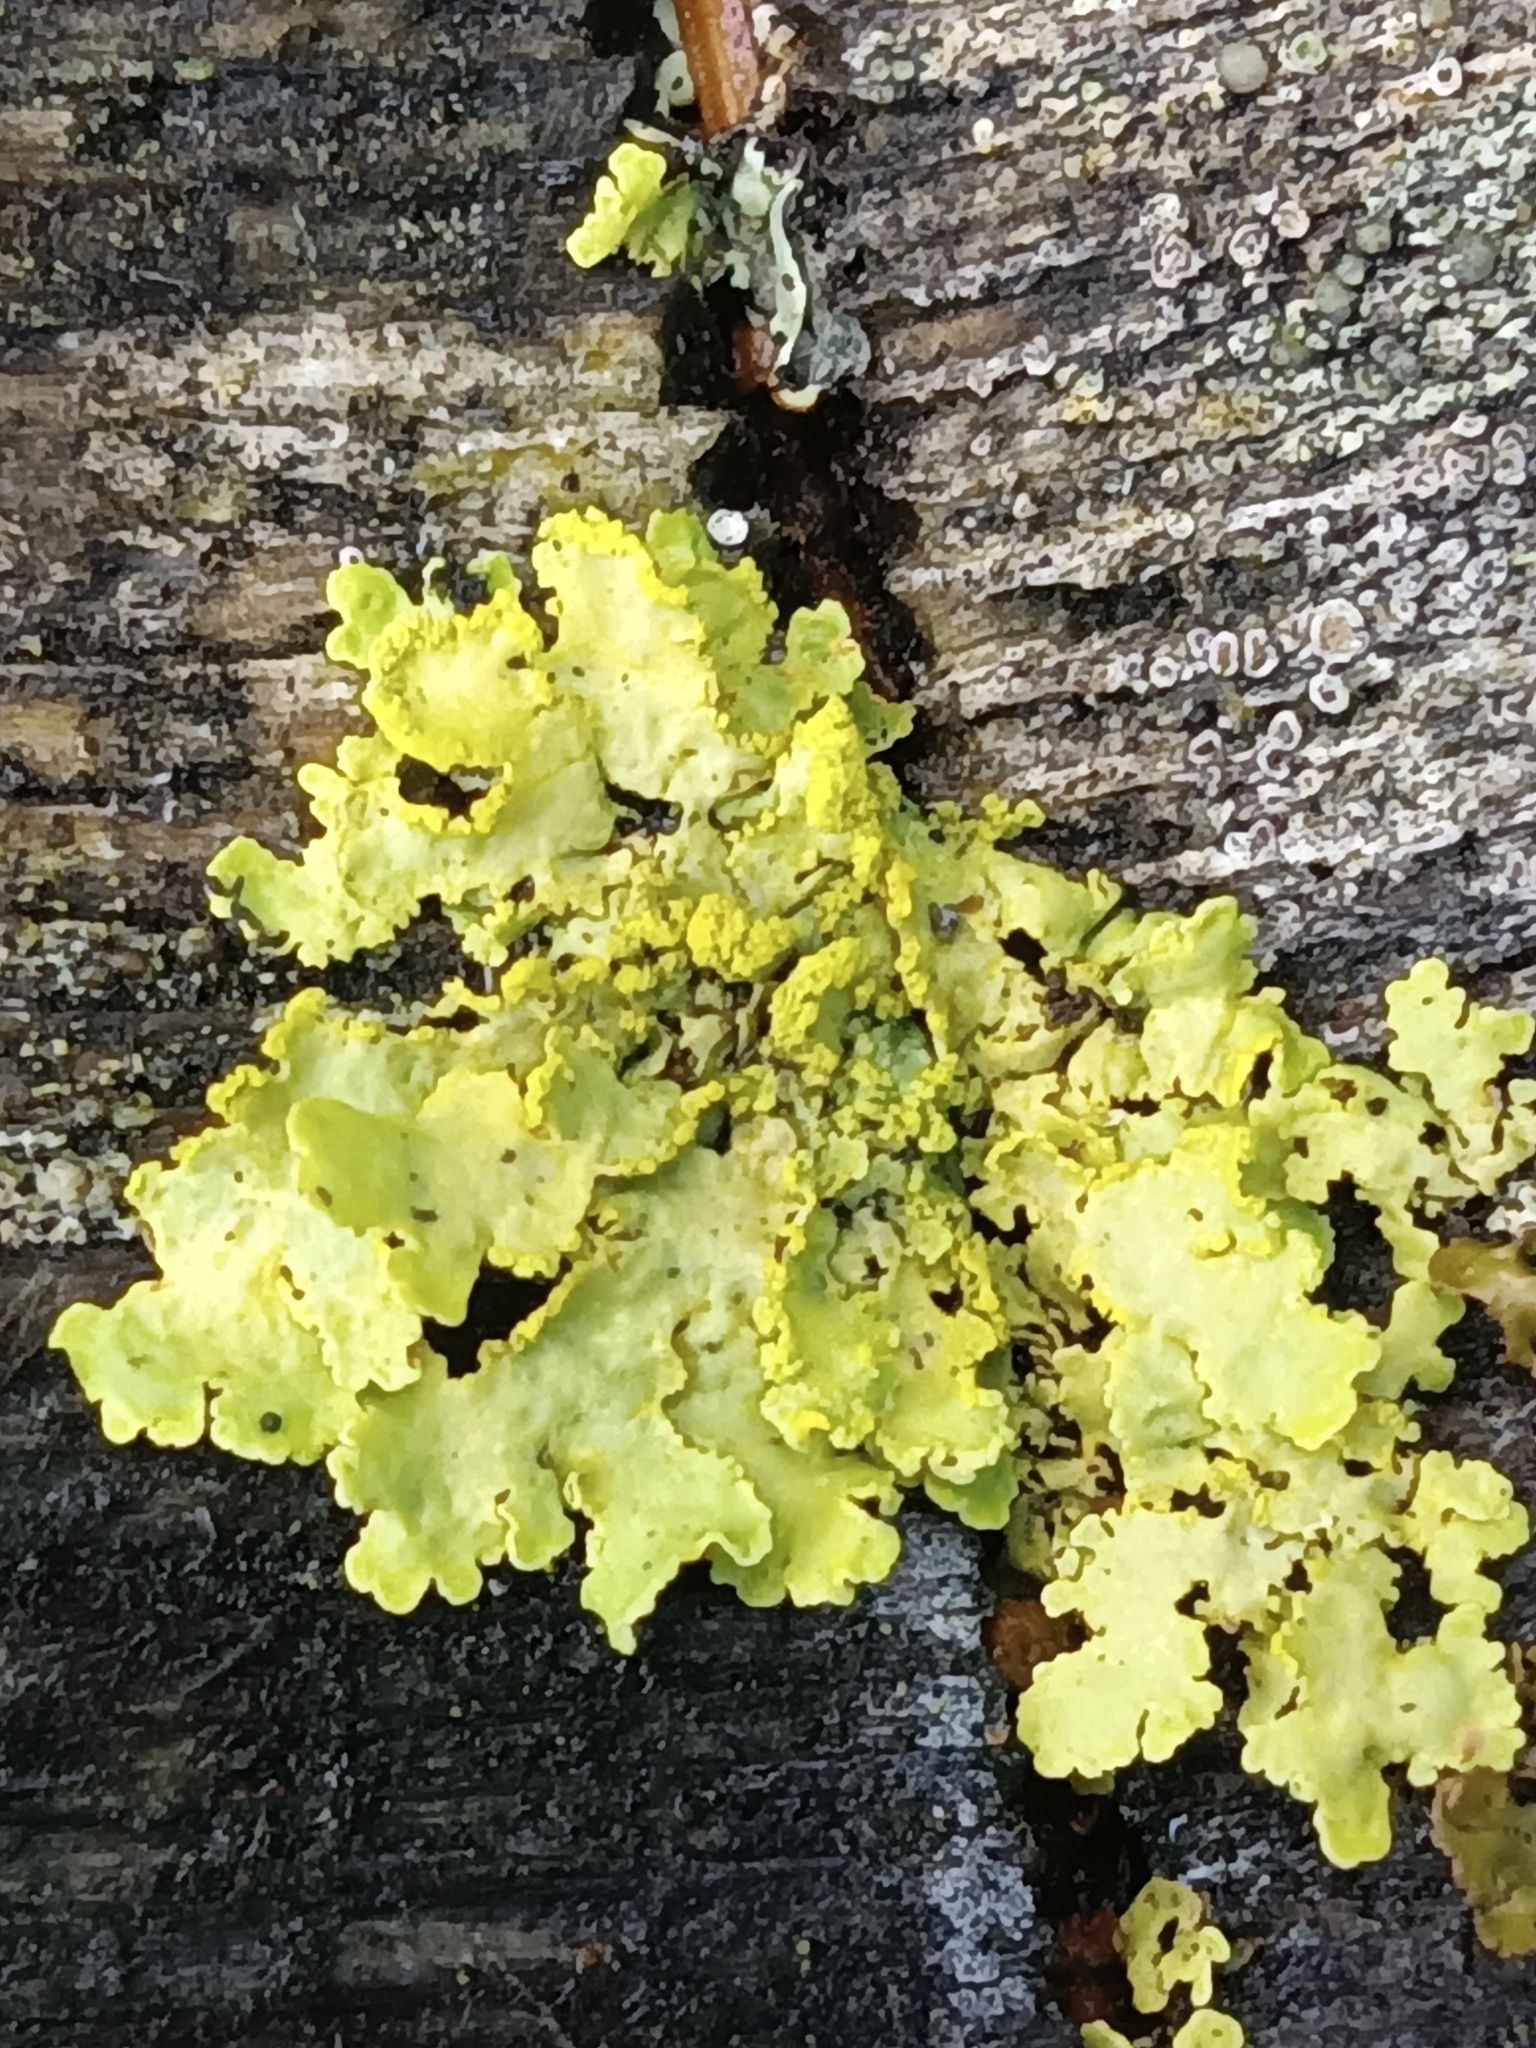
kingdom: Fungi
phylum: Ascomycota
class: Lecanoromycetes
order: Lecanorales
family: Parmeliaceae
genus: Vulpicida
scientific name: Vulpicida pinastri
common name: Powdered sunshine lichen
